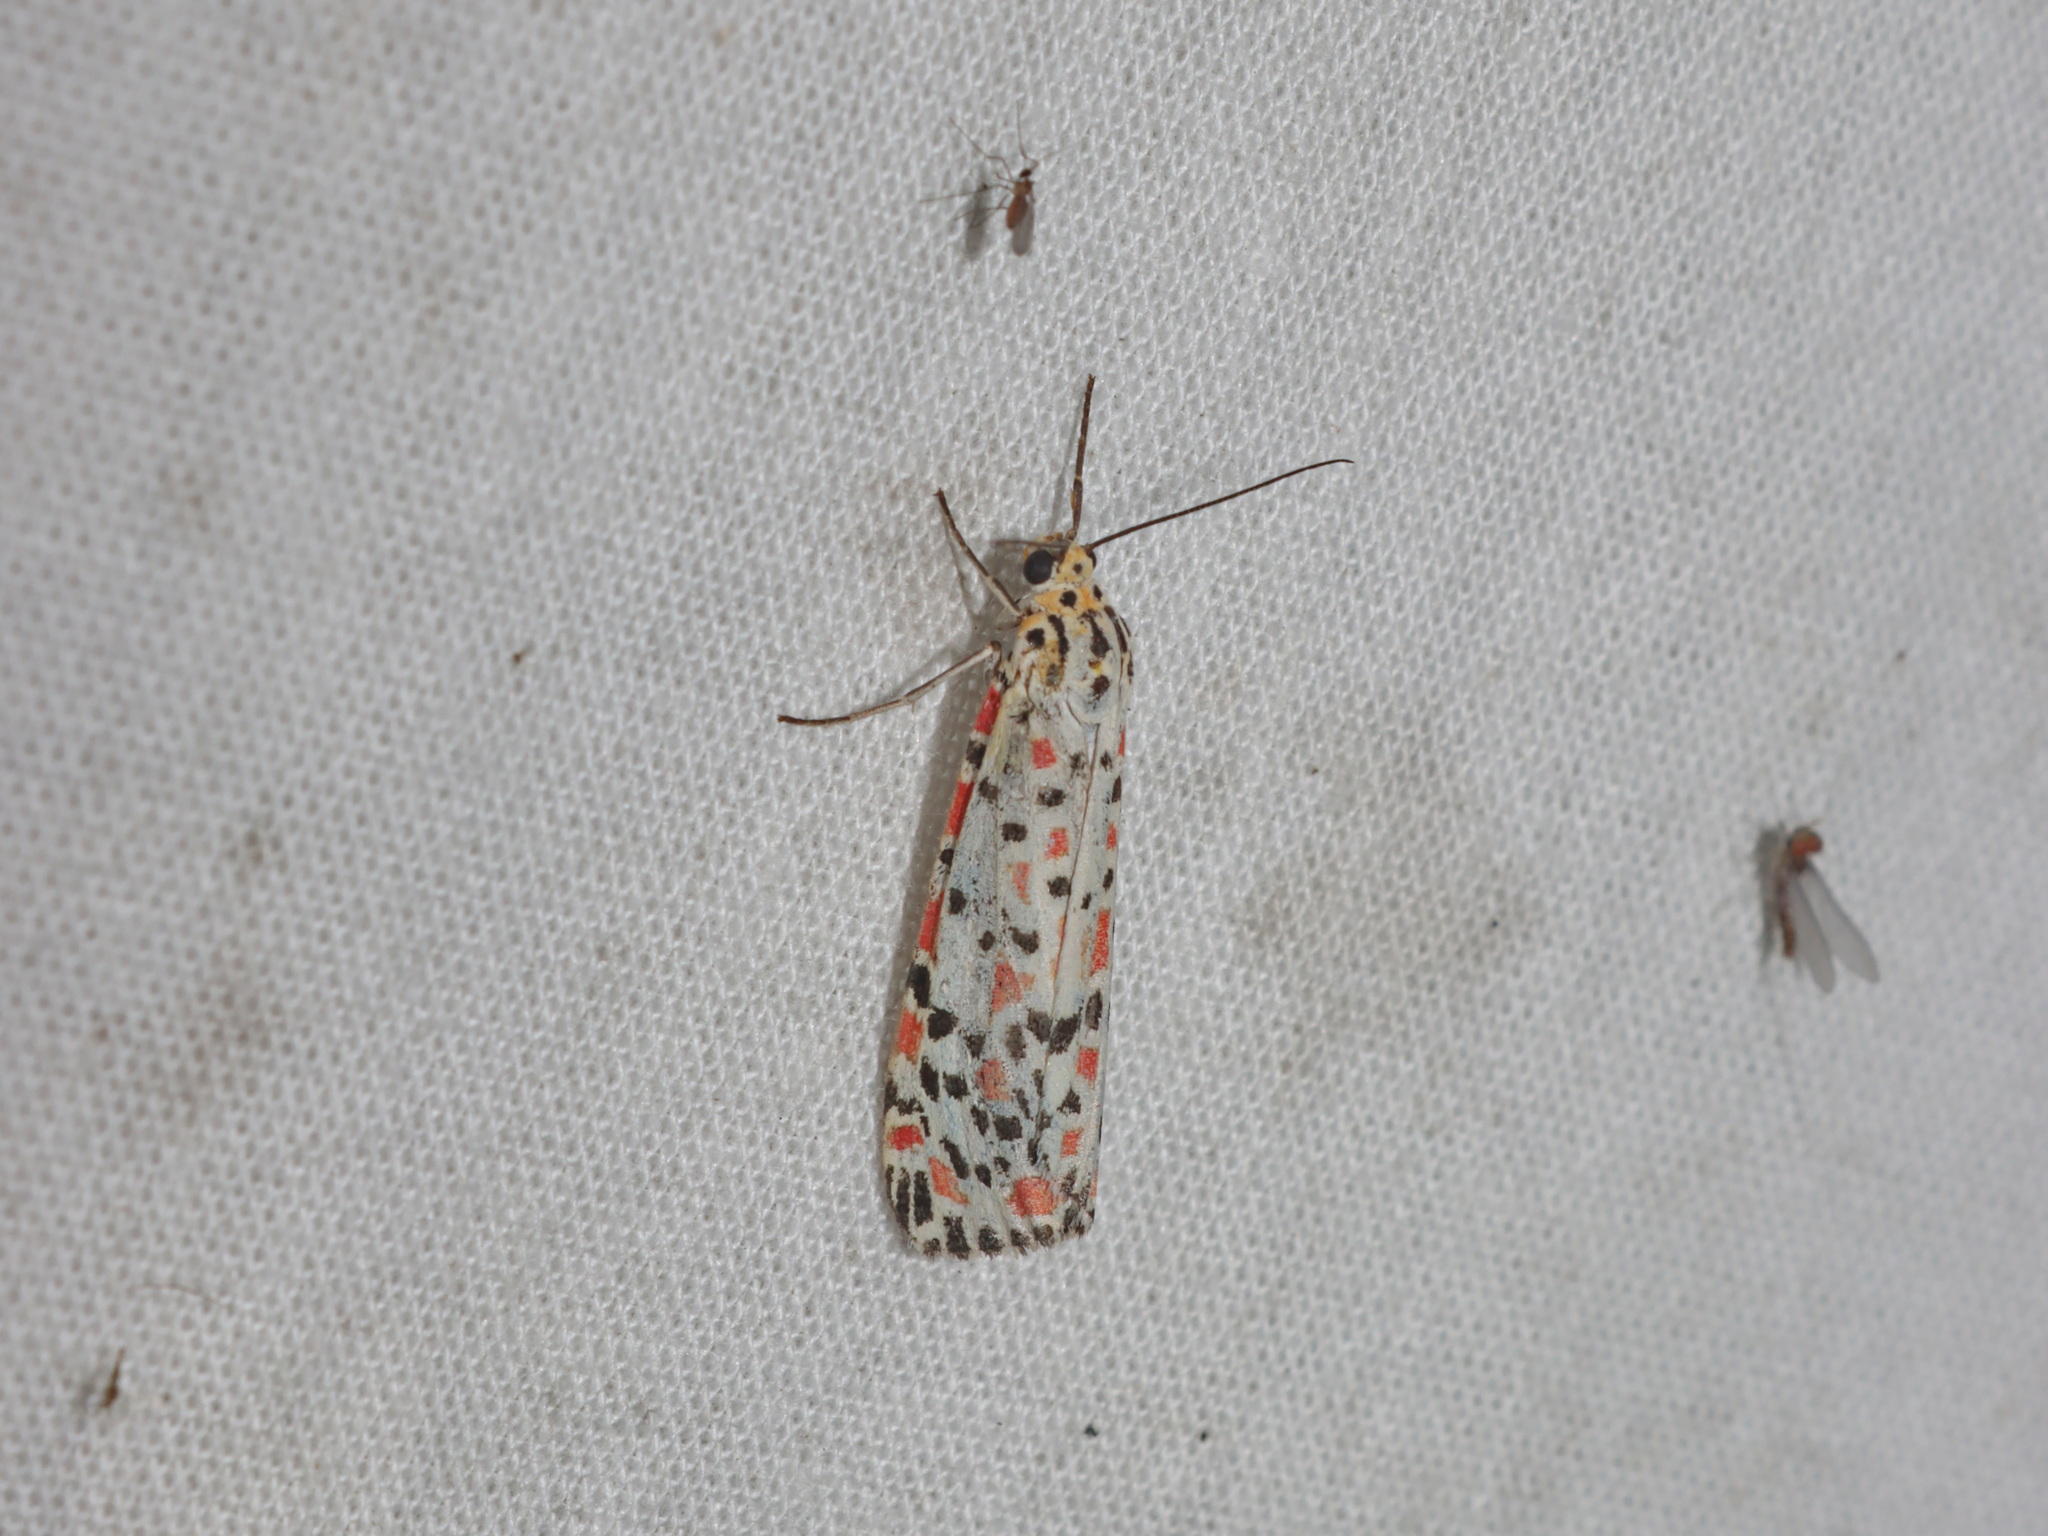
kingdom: Animalia
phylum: Arthropoda
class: Insecta
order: Lepidoptera
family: Erebidae
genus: Utetheisa
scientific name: Utetheisa pulchelloides
